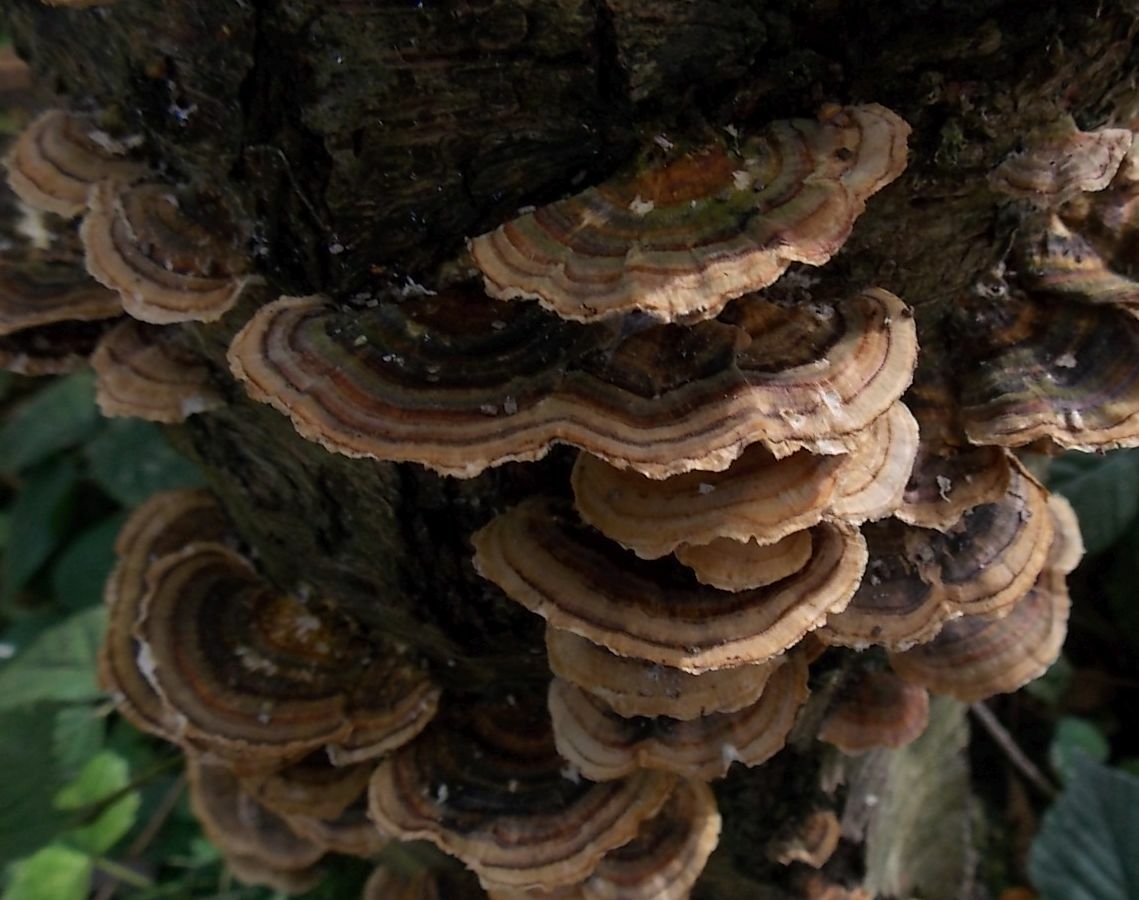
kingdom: Fungi
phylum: Basidiomycota
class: Agaricomycetes
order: Polyporales
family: Polyporaceae
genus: Trametes
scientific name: Trametes versicolor
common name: Turkeytail
